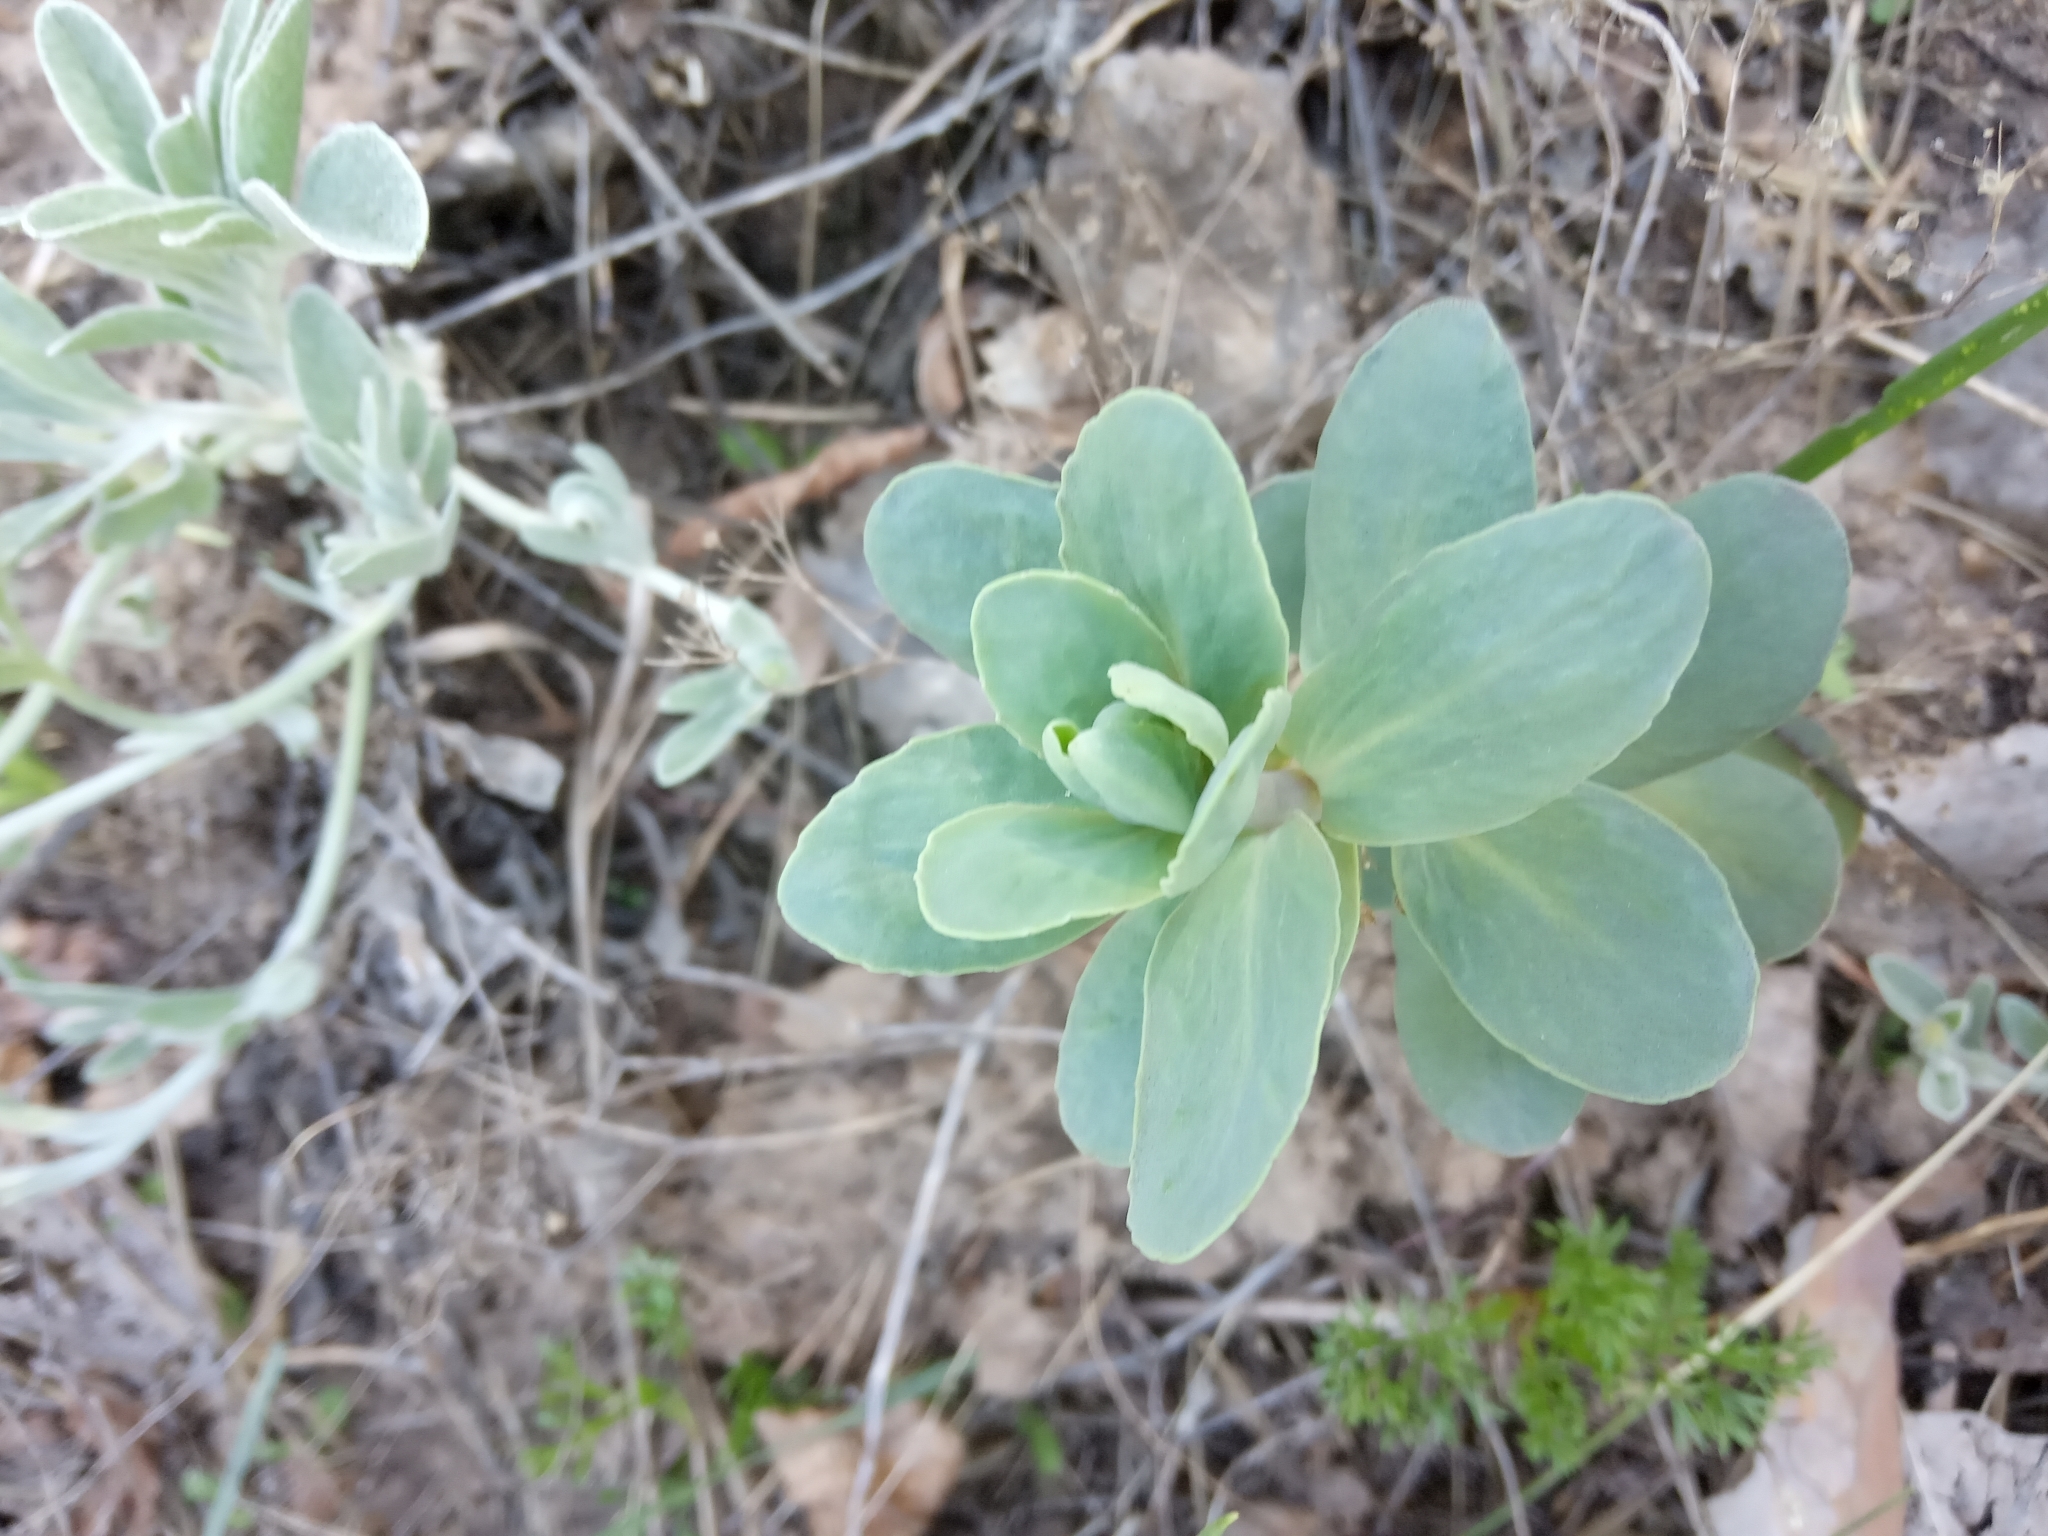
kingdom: Plantae
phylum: Tracheophyta
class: Magnoliopsida
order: Saxifragales
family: Crassulaceae
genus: Hylotelephium
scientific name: Hylotelephium maximum
